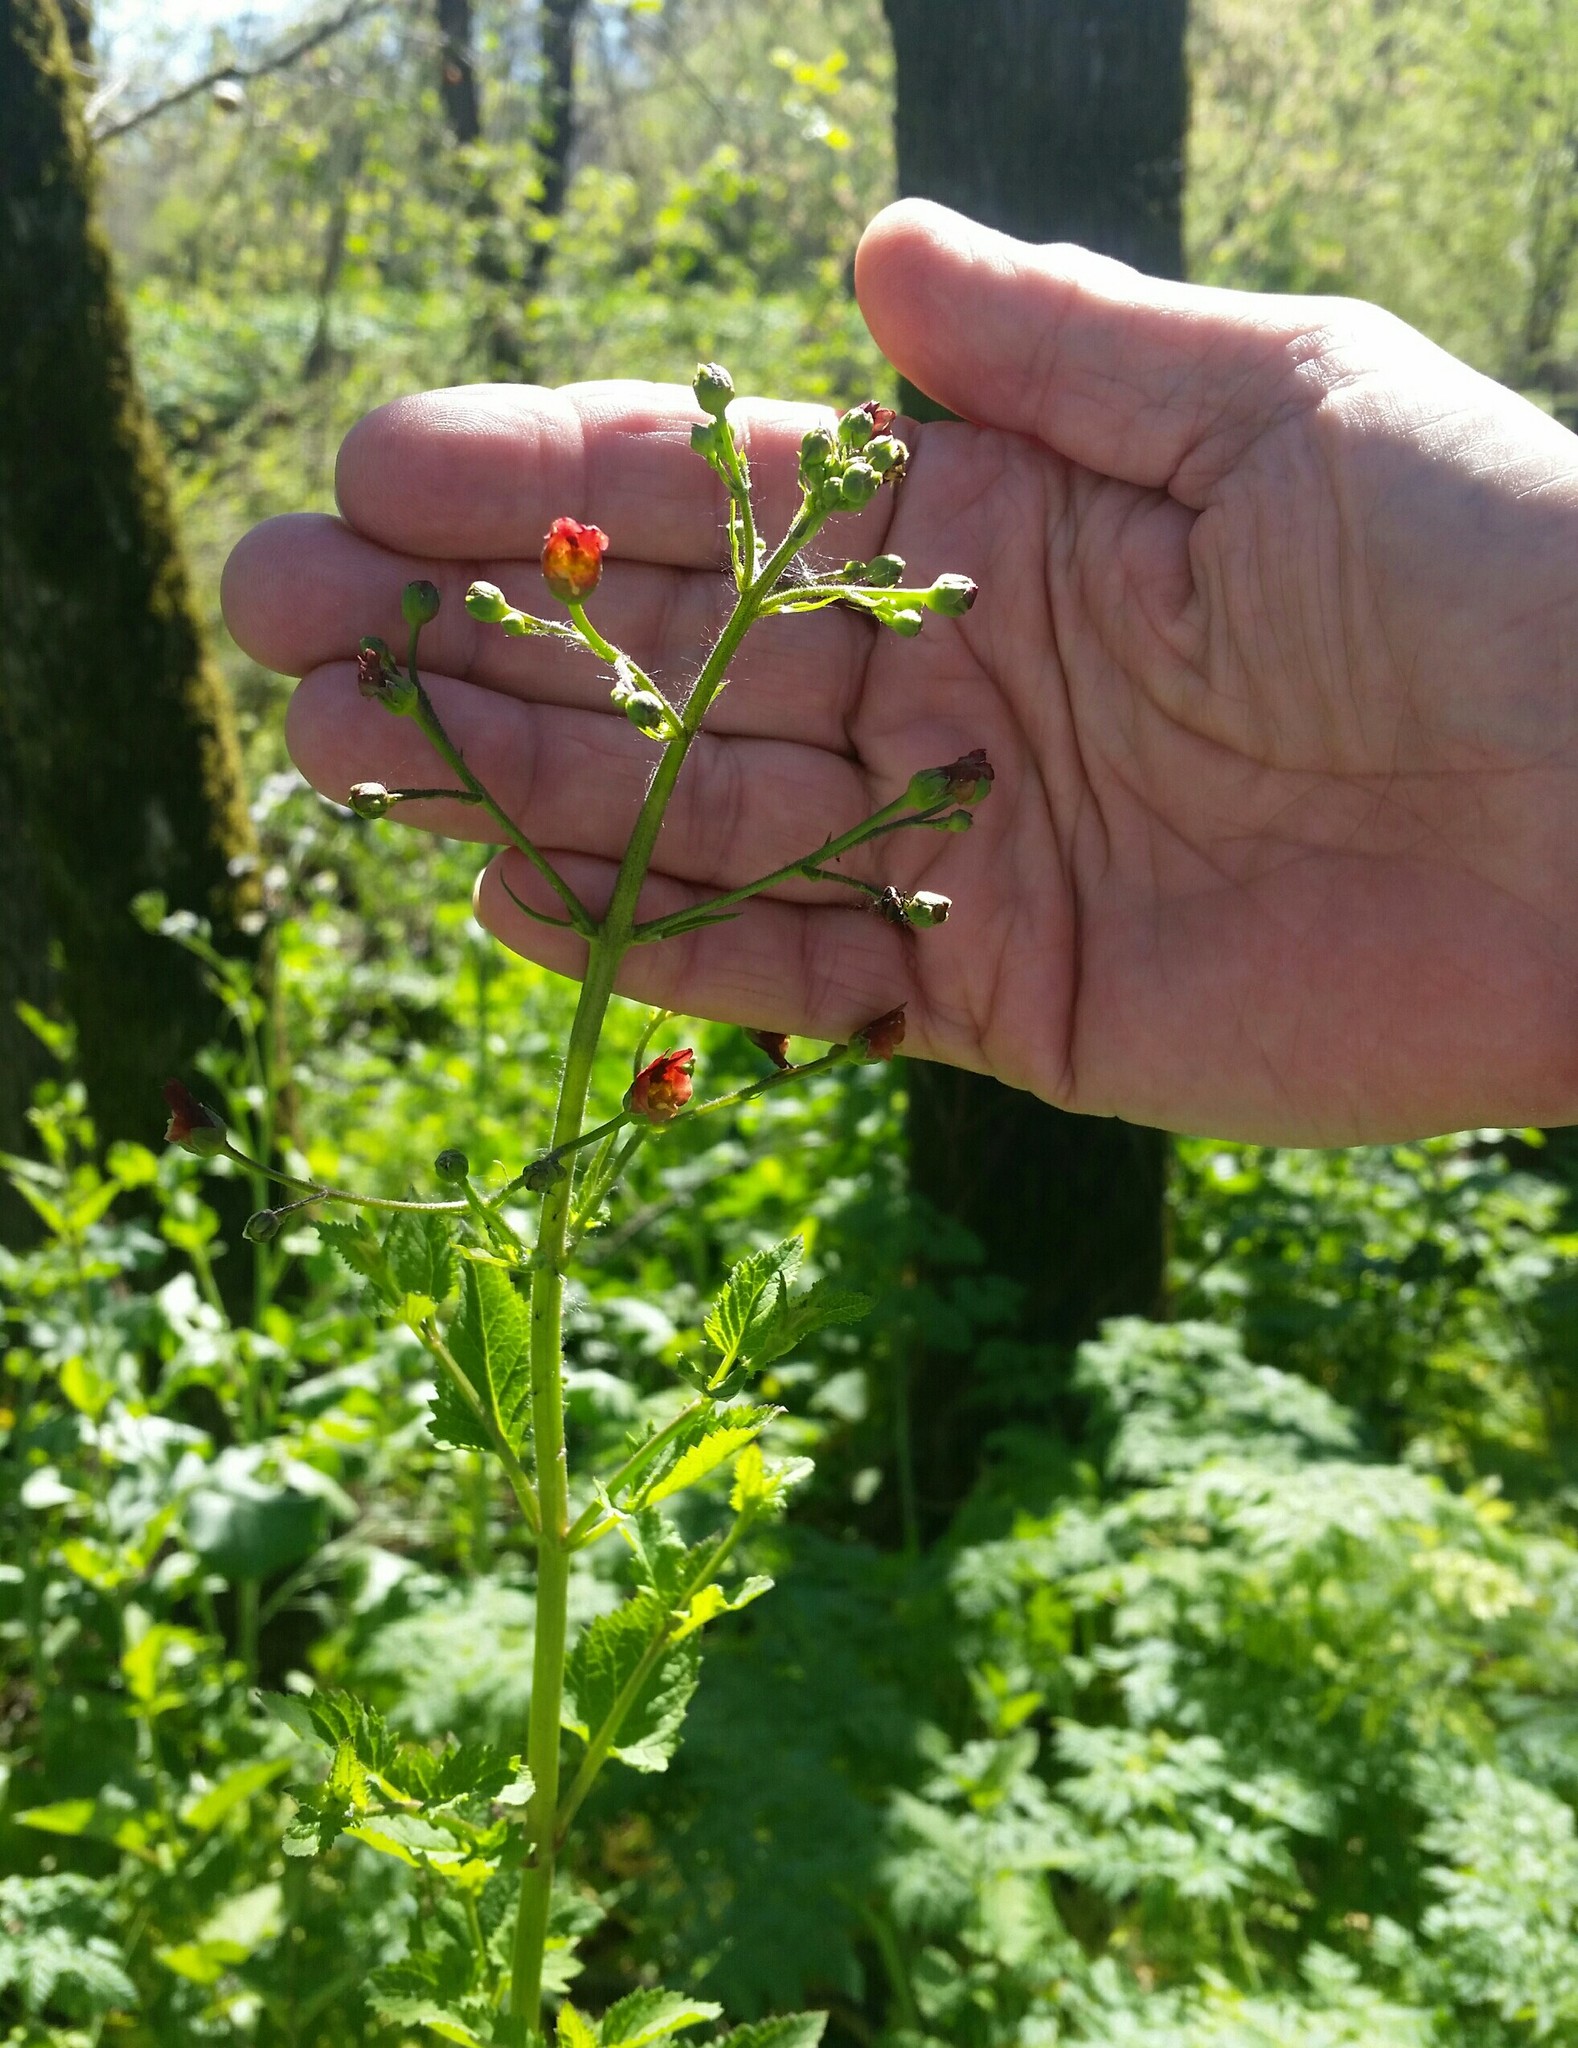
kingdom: Plantae
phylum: Tracheophyta
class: Magnoliopsida
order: Lamiales
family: Scrophulariaceae
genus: Scrophularia
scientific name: Scrophularia californica
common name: California figwort
